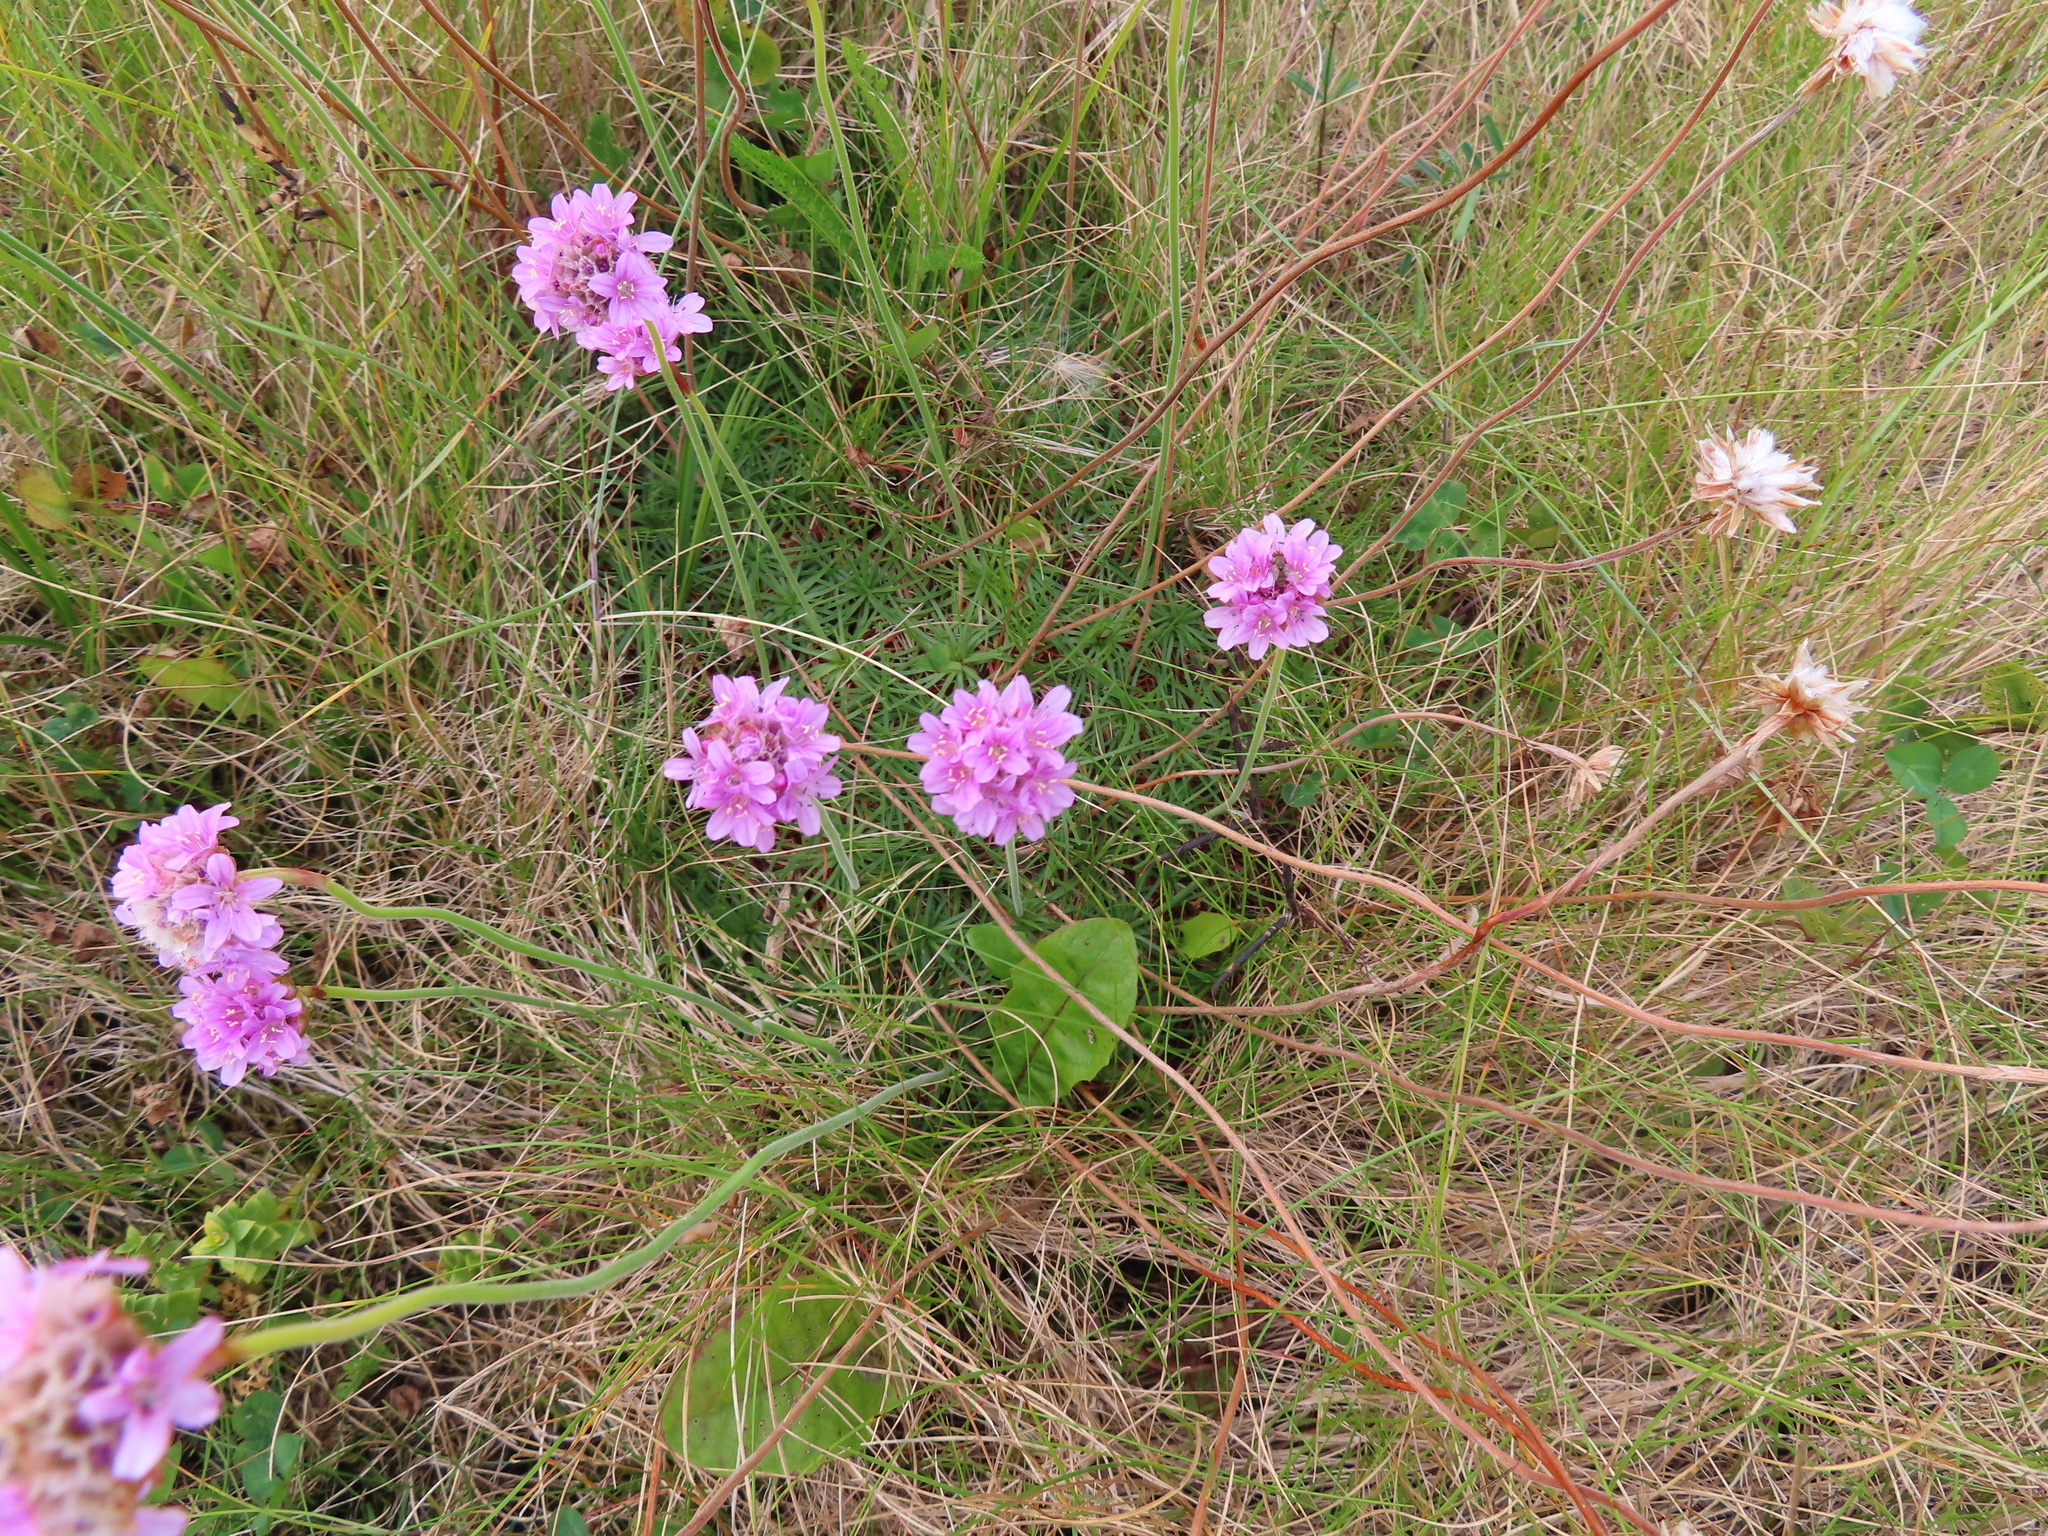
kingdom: Plantae
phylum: Tracheophyta
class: Magnoliopsida
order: Caryophyllales
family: Plumbaginaceae
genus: Armeria
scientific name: Armeria maritima
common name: Thrift
